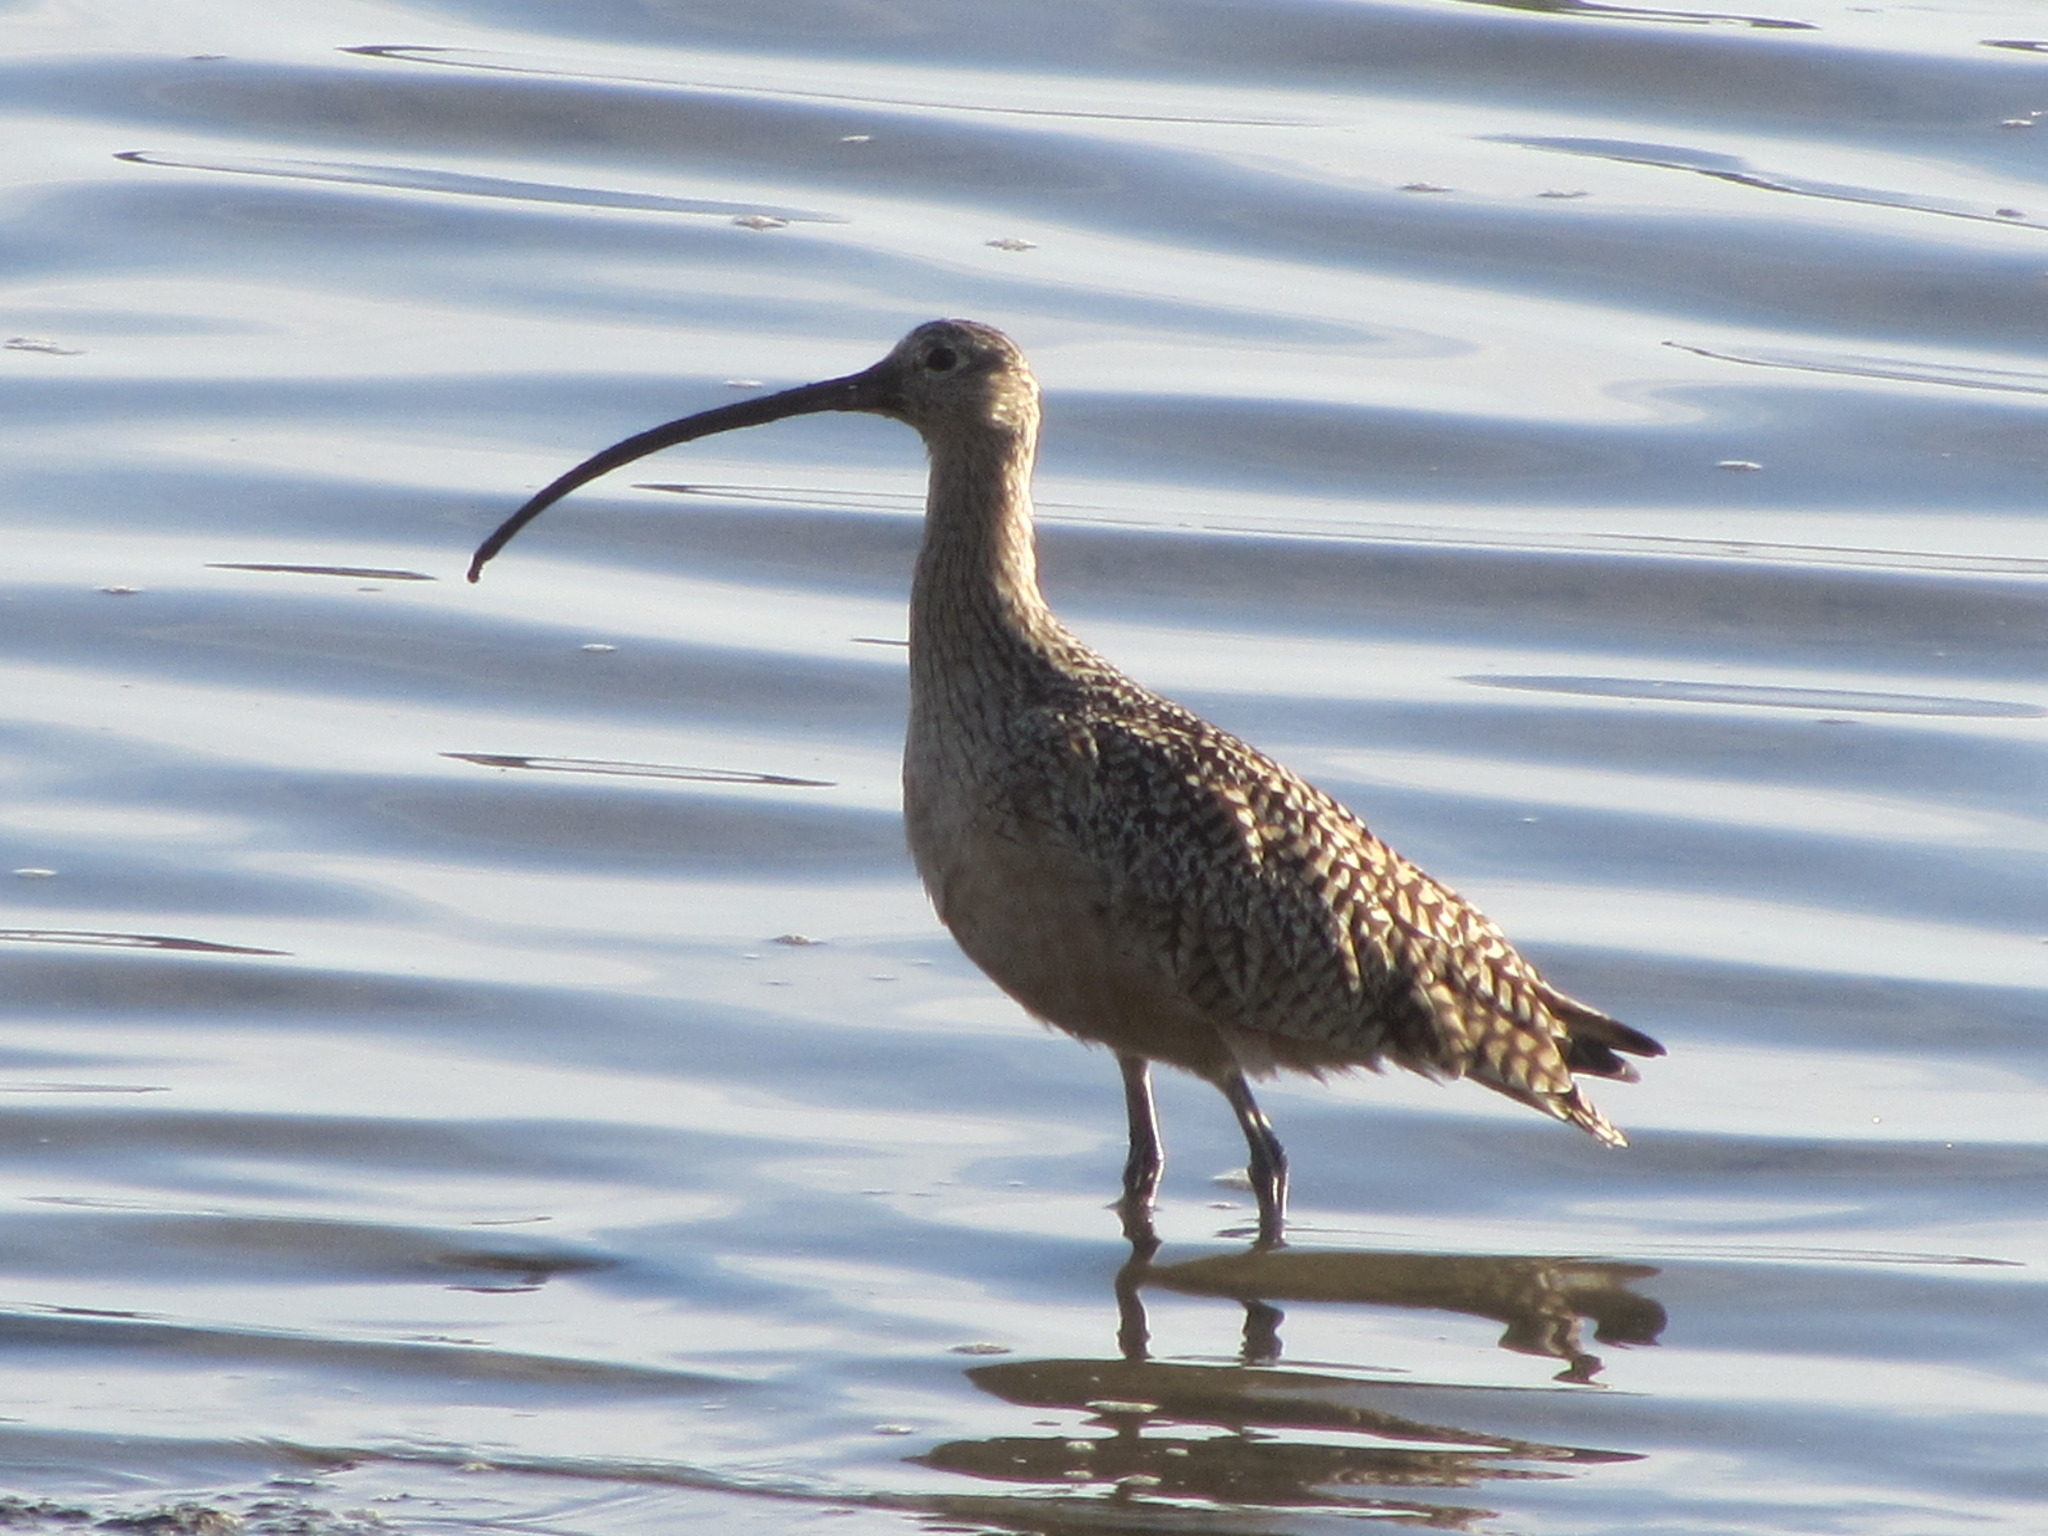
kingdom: Animalia
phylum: Chordata
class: Aves
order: Charadriiformes
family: Scolopacidae
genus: Numenius
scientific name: Numenius americanus
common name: Long-billed curlew
